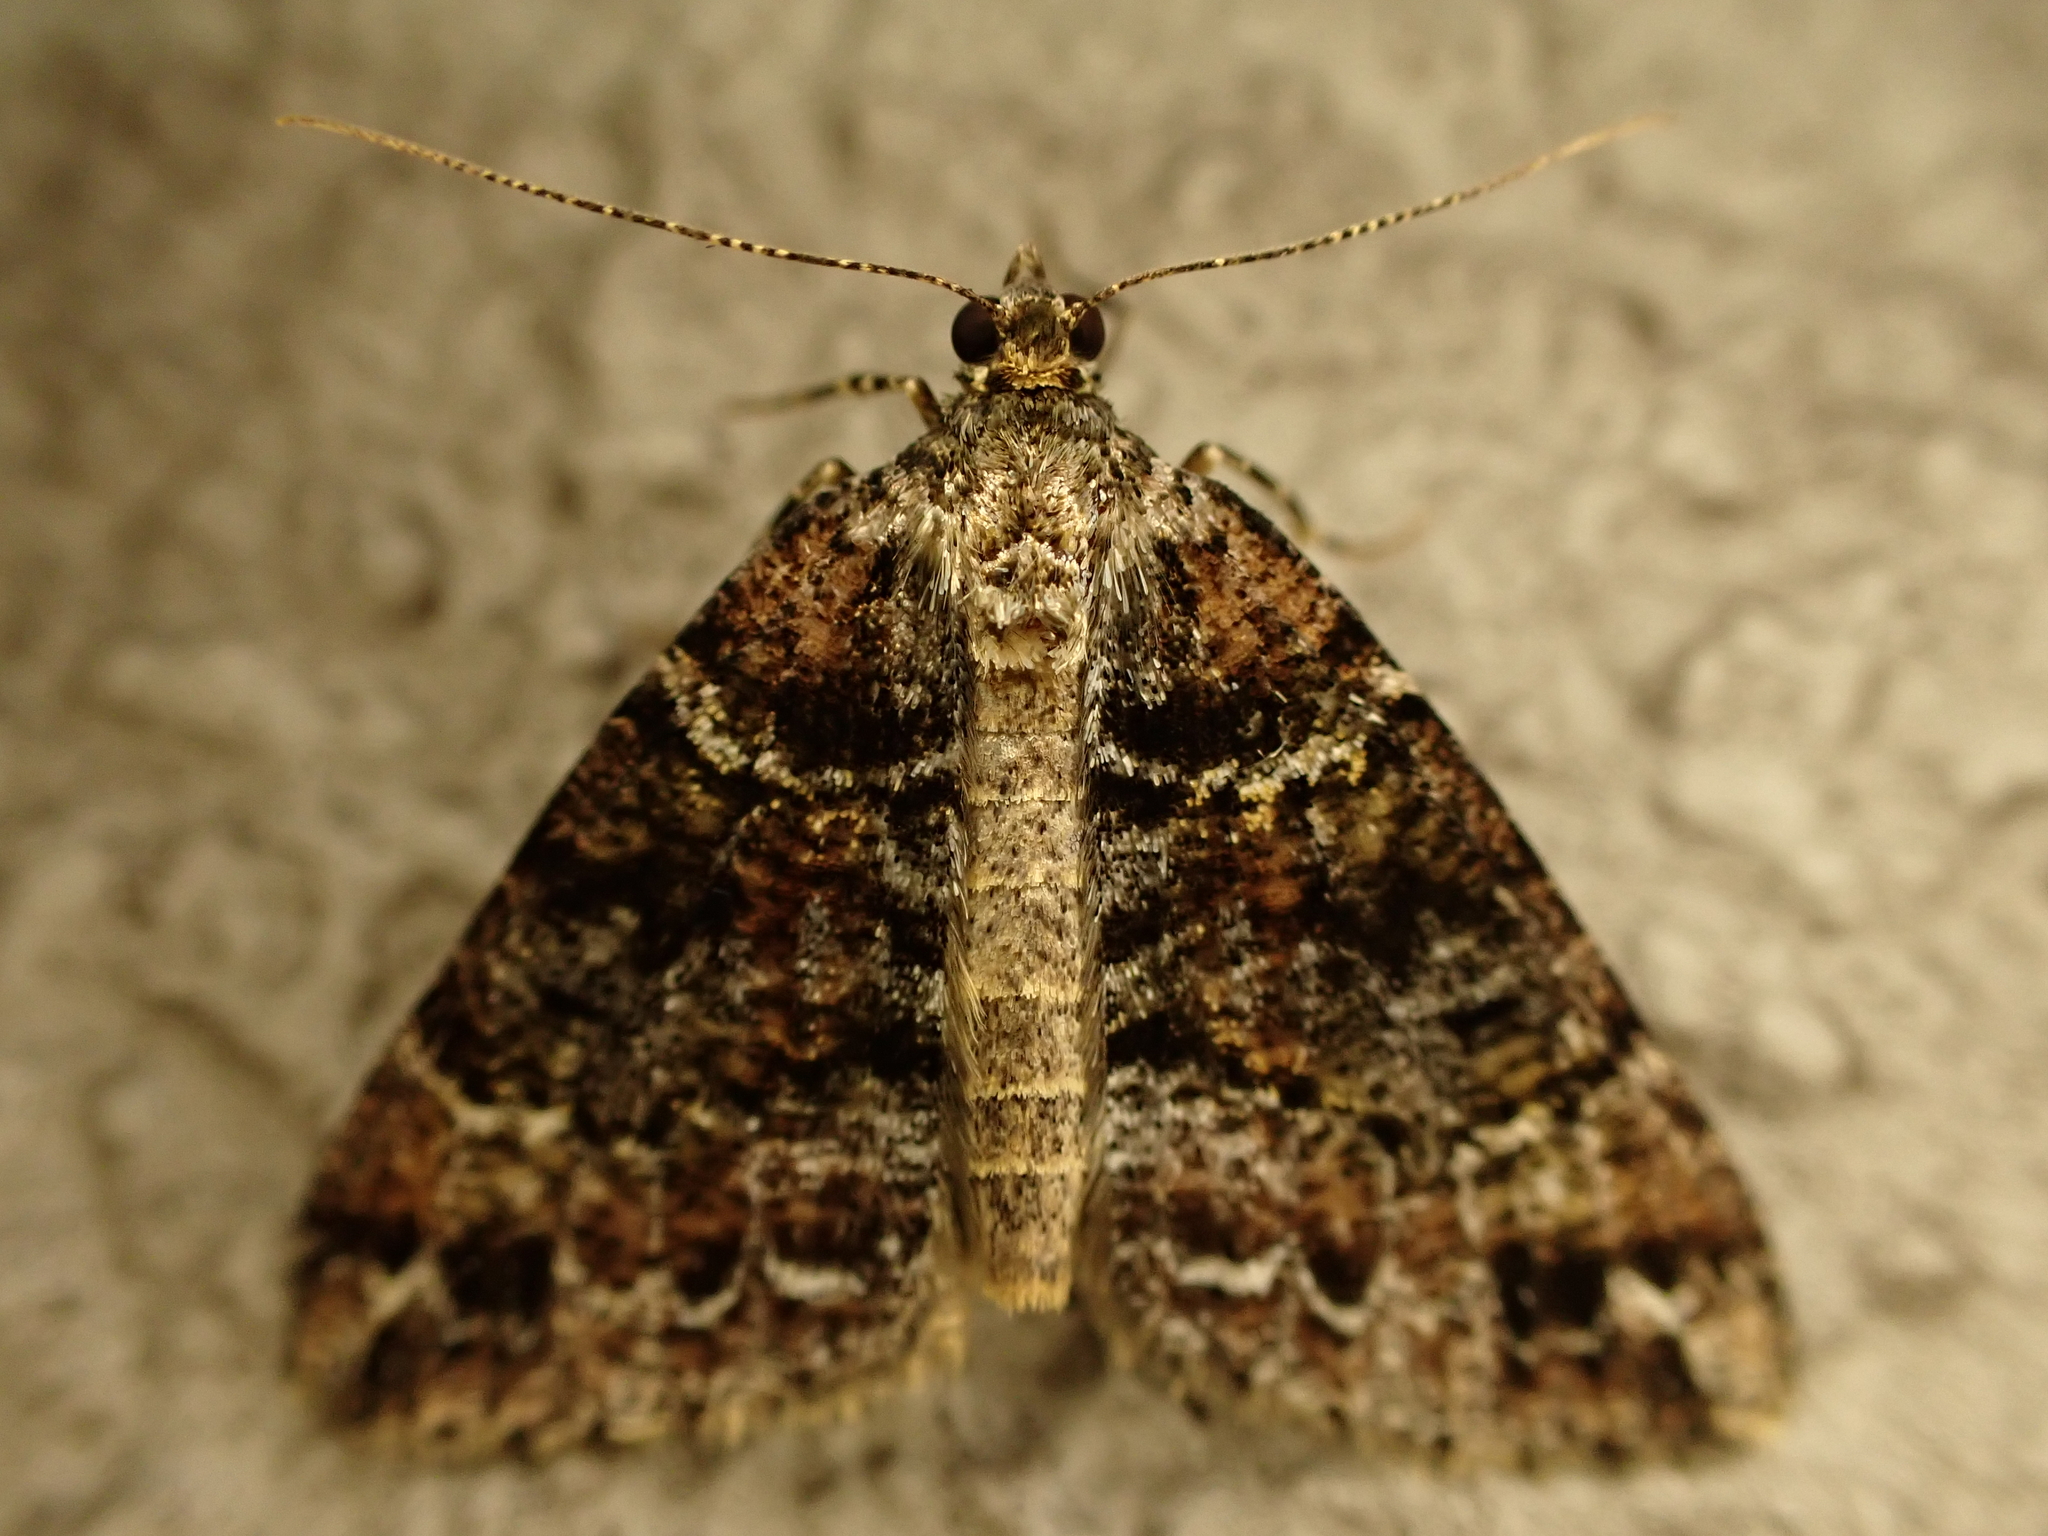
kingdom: Animalia
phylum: Arthropoda
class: Insecta
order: Lepidoptera
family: Geometridae
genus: Pseudocoremia
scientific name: Pseudocoremia productata
